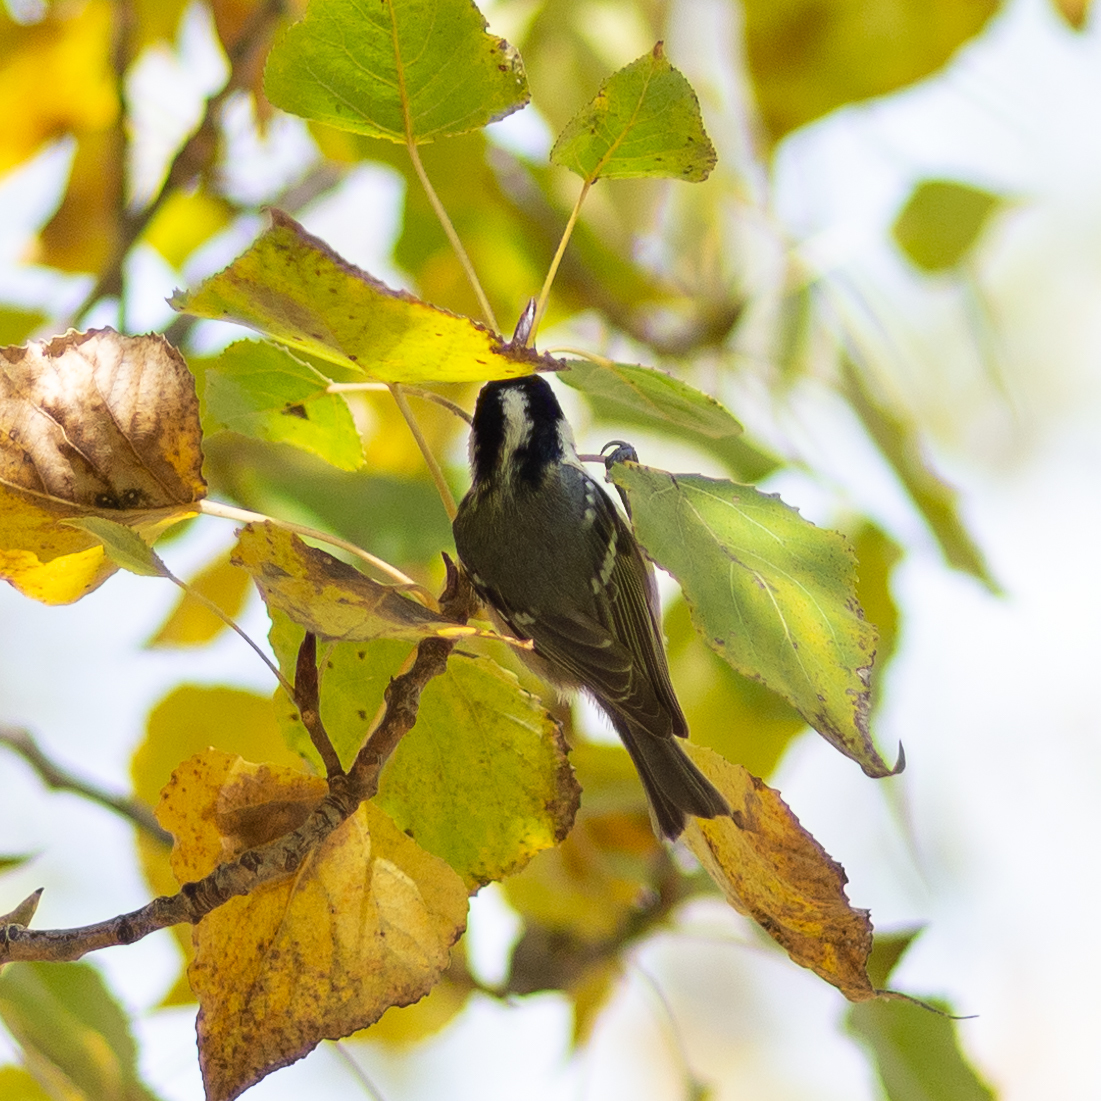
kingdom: Animalia
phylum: Chordata
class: Aves
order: Passeriformes
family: Paridae
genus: Periparus
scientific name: Periparus ater
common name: Coal tit
